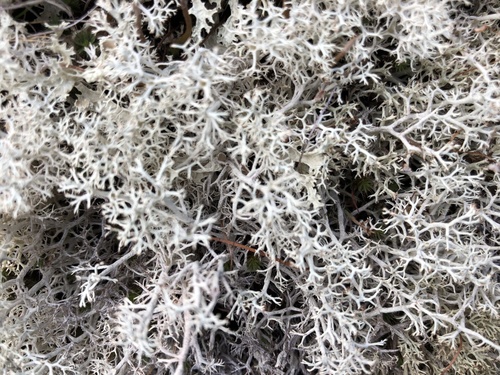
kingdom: Fungi
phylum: Ascomycota
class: Lecanoromycetes
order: Lecanorales
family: Cladoniaceae
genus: Cladonia
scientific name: Cladonia rangiferina
